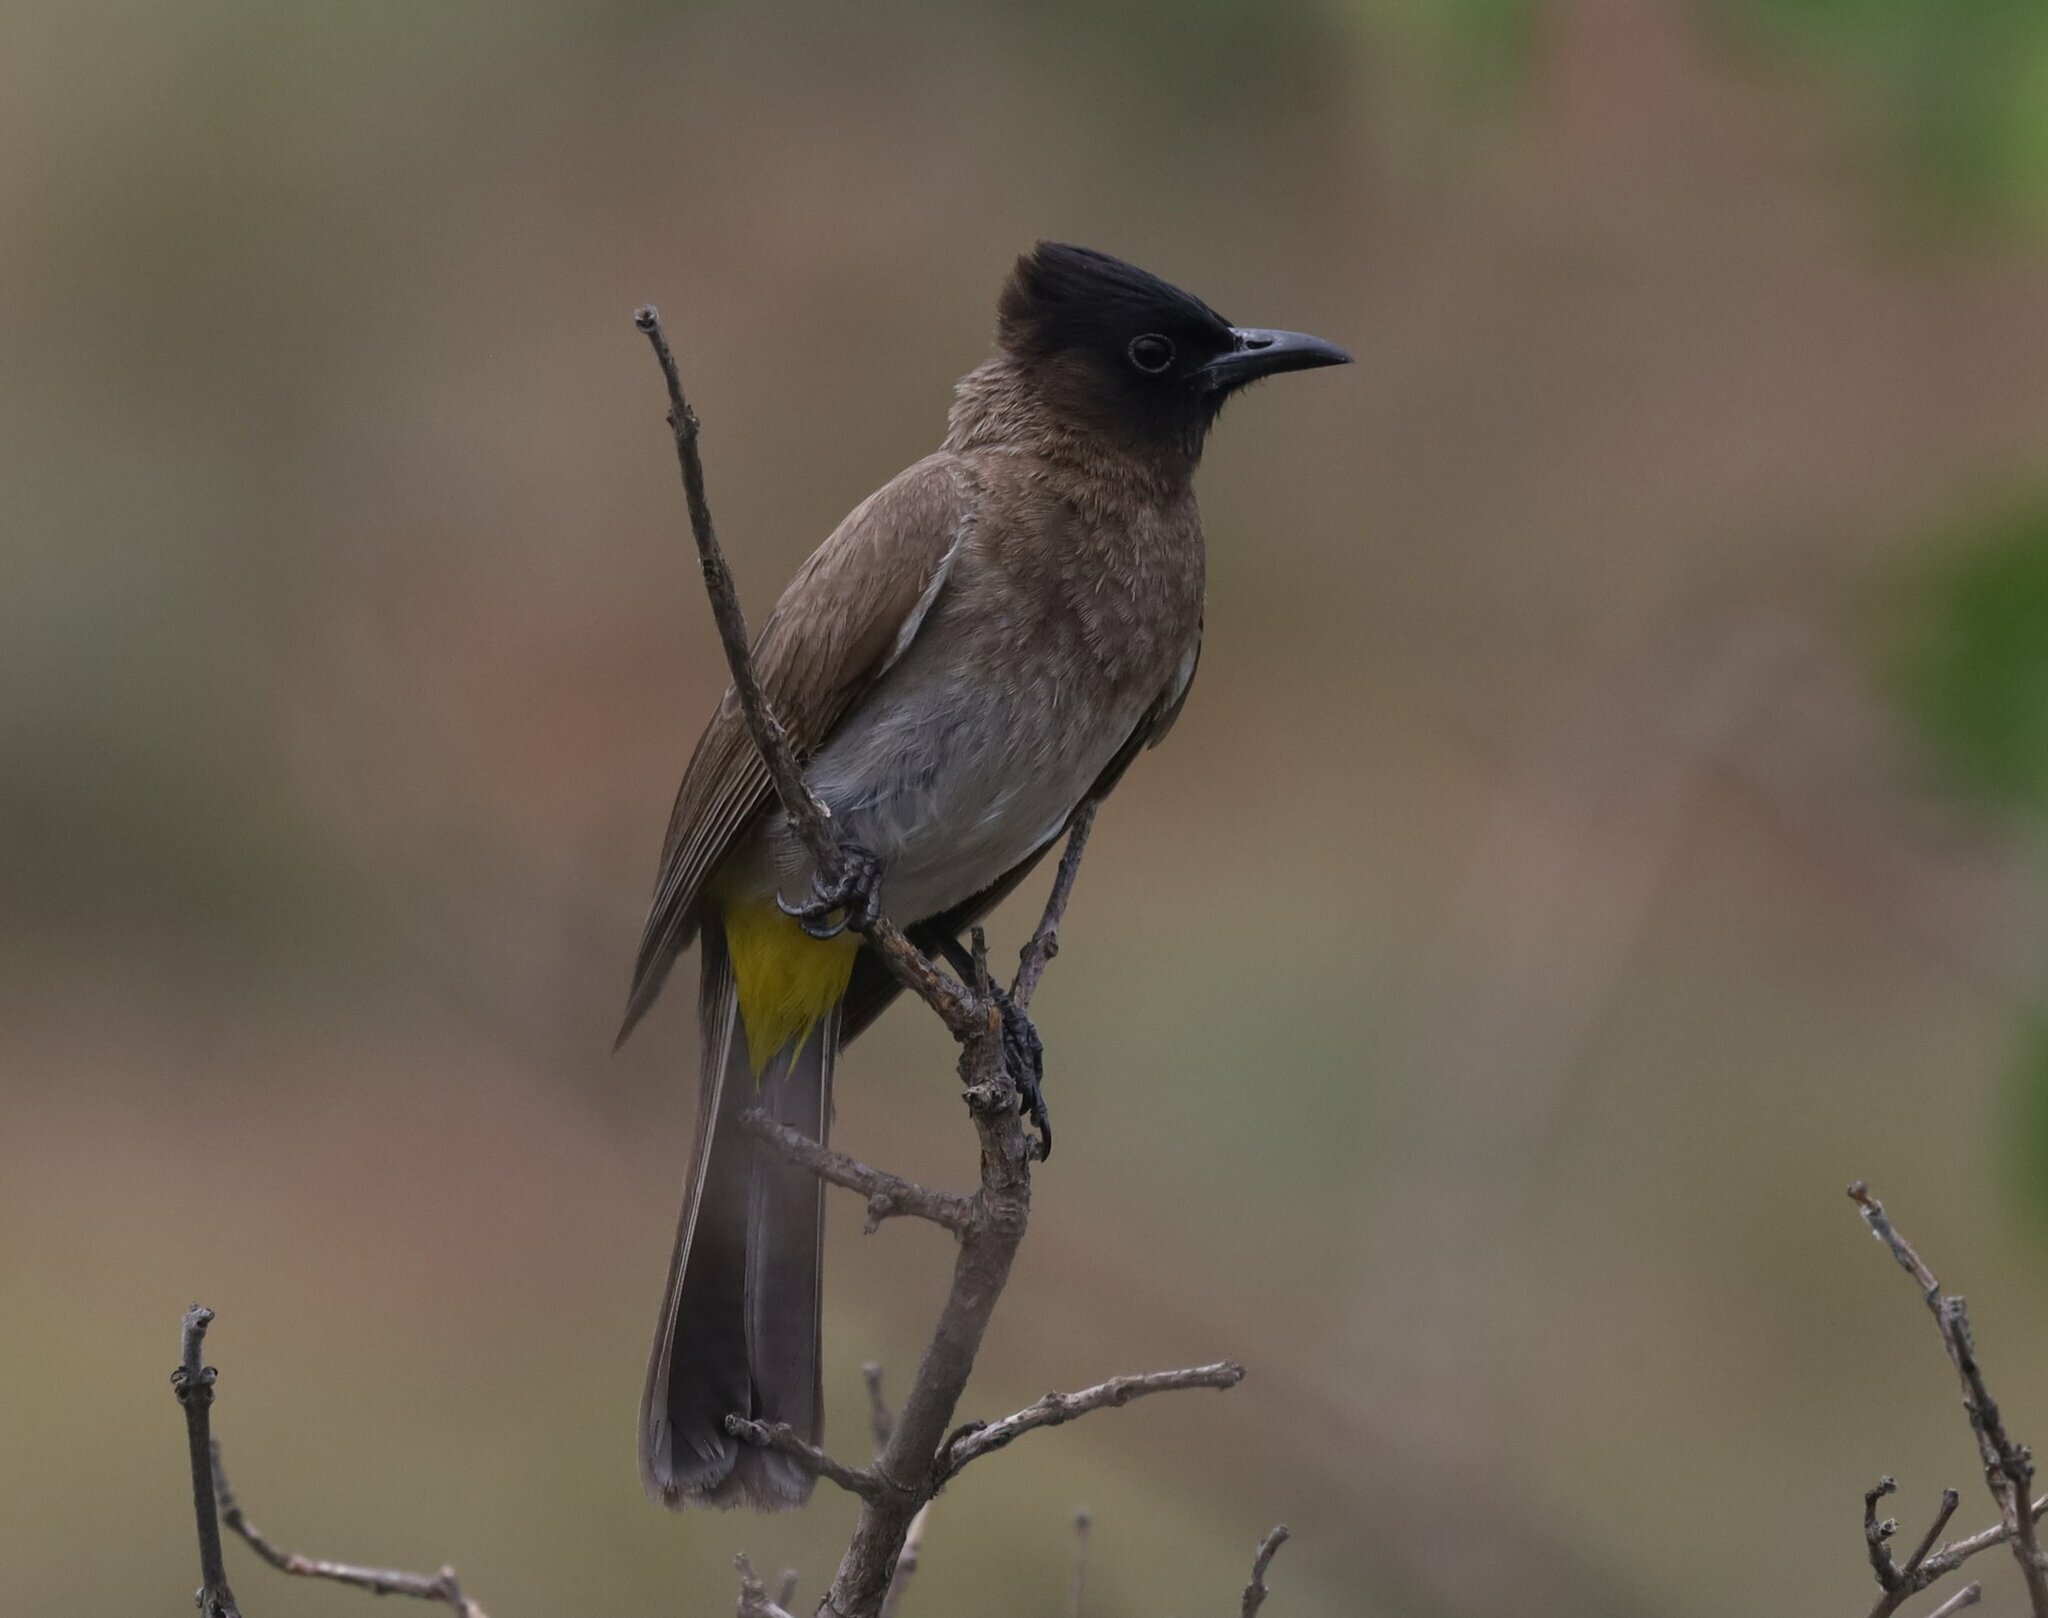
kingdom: Animalia
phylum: Chordata
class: Aves
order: Passeriformes
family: Pycnonotidae
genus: Pycnonotus
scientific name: Pycnonotus barbatus
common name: Common bulbul
